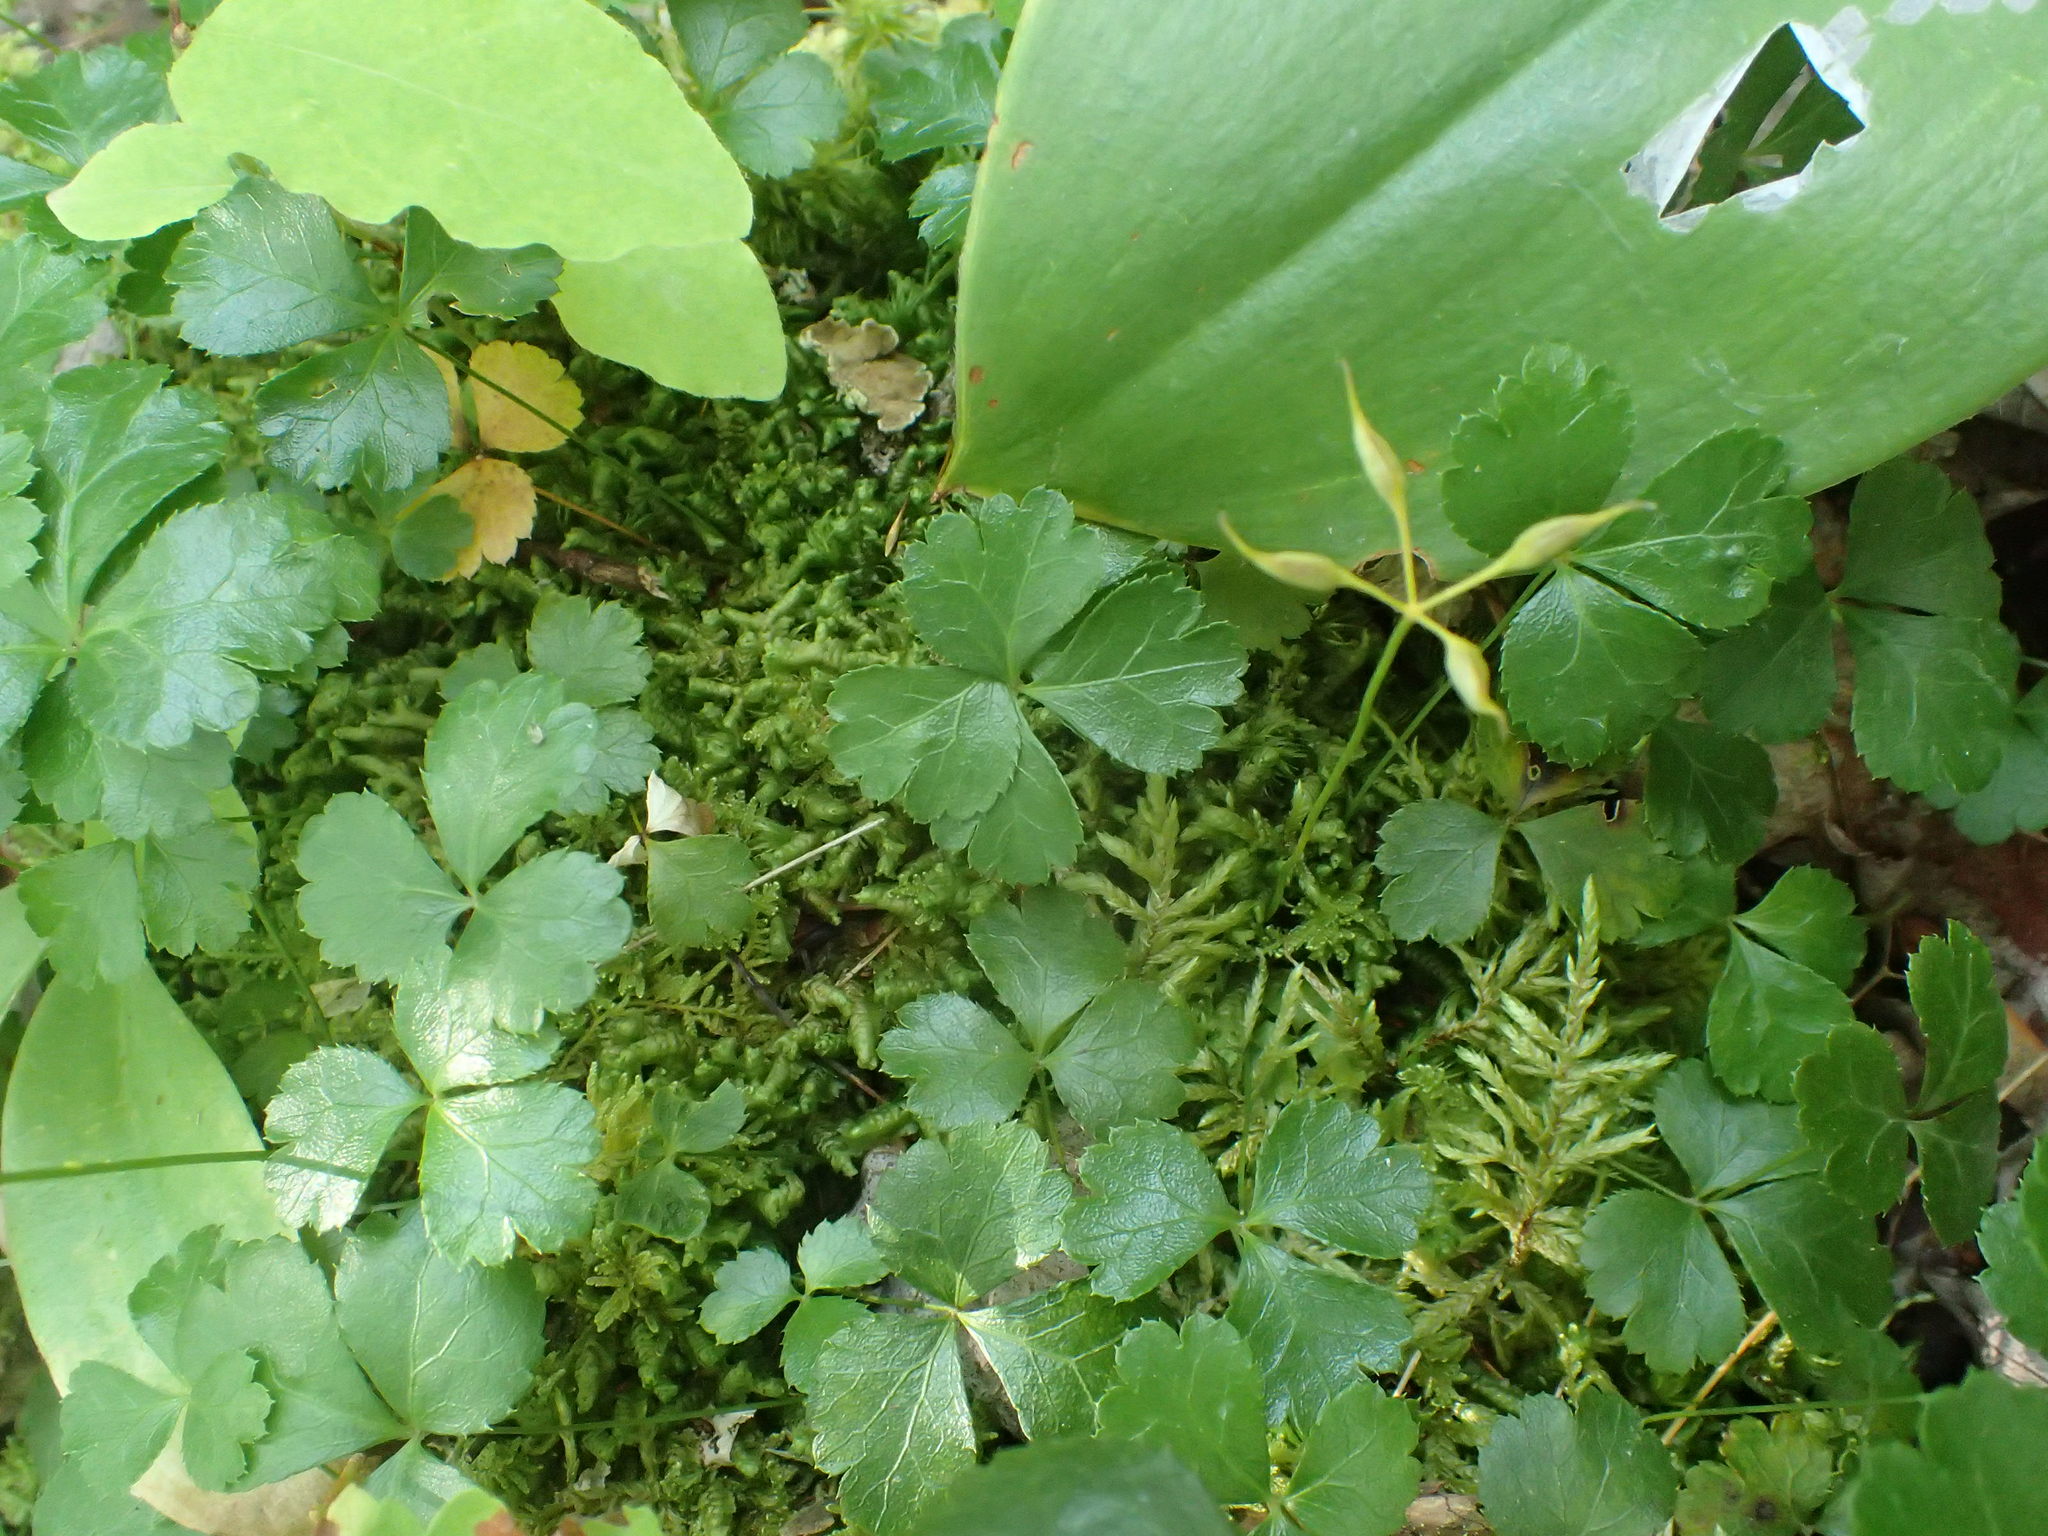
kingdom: Plantae
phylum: Tracheophyta
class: Magnoliopsida
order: Ranunculales
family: Ranunculaceae
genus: Coptis
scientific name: Coptis trifolia
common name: Canker-root
